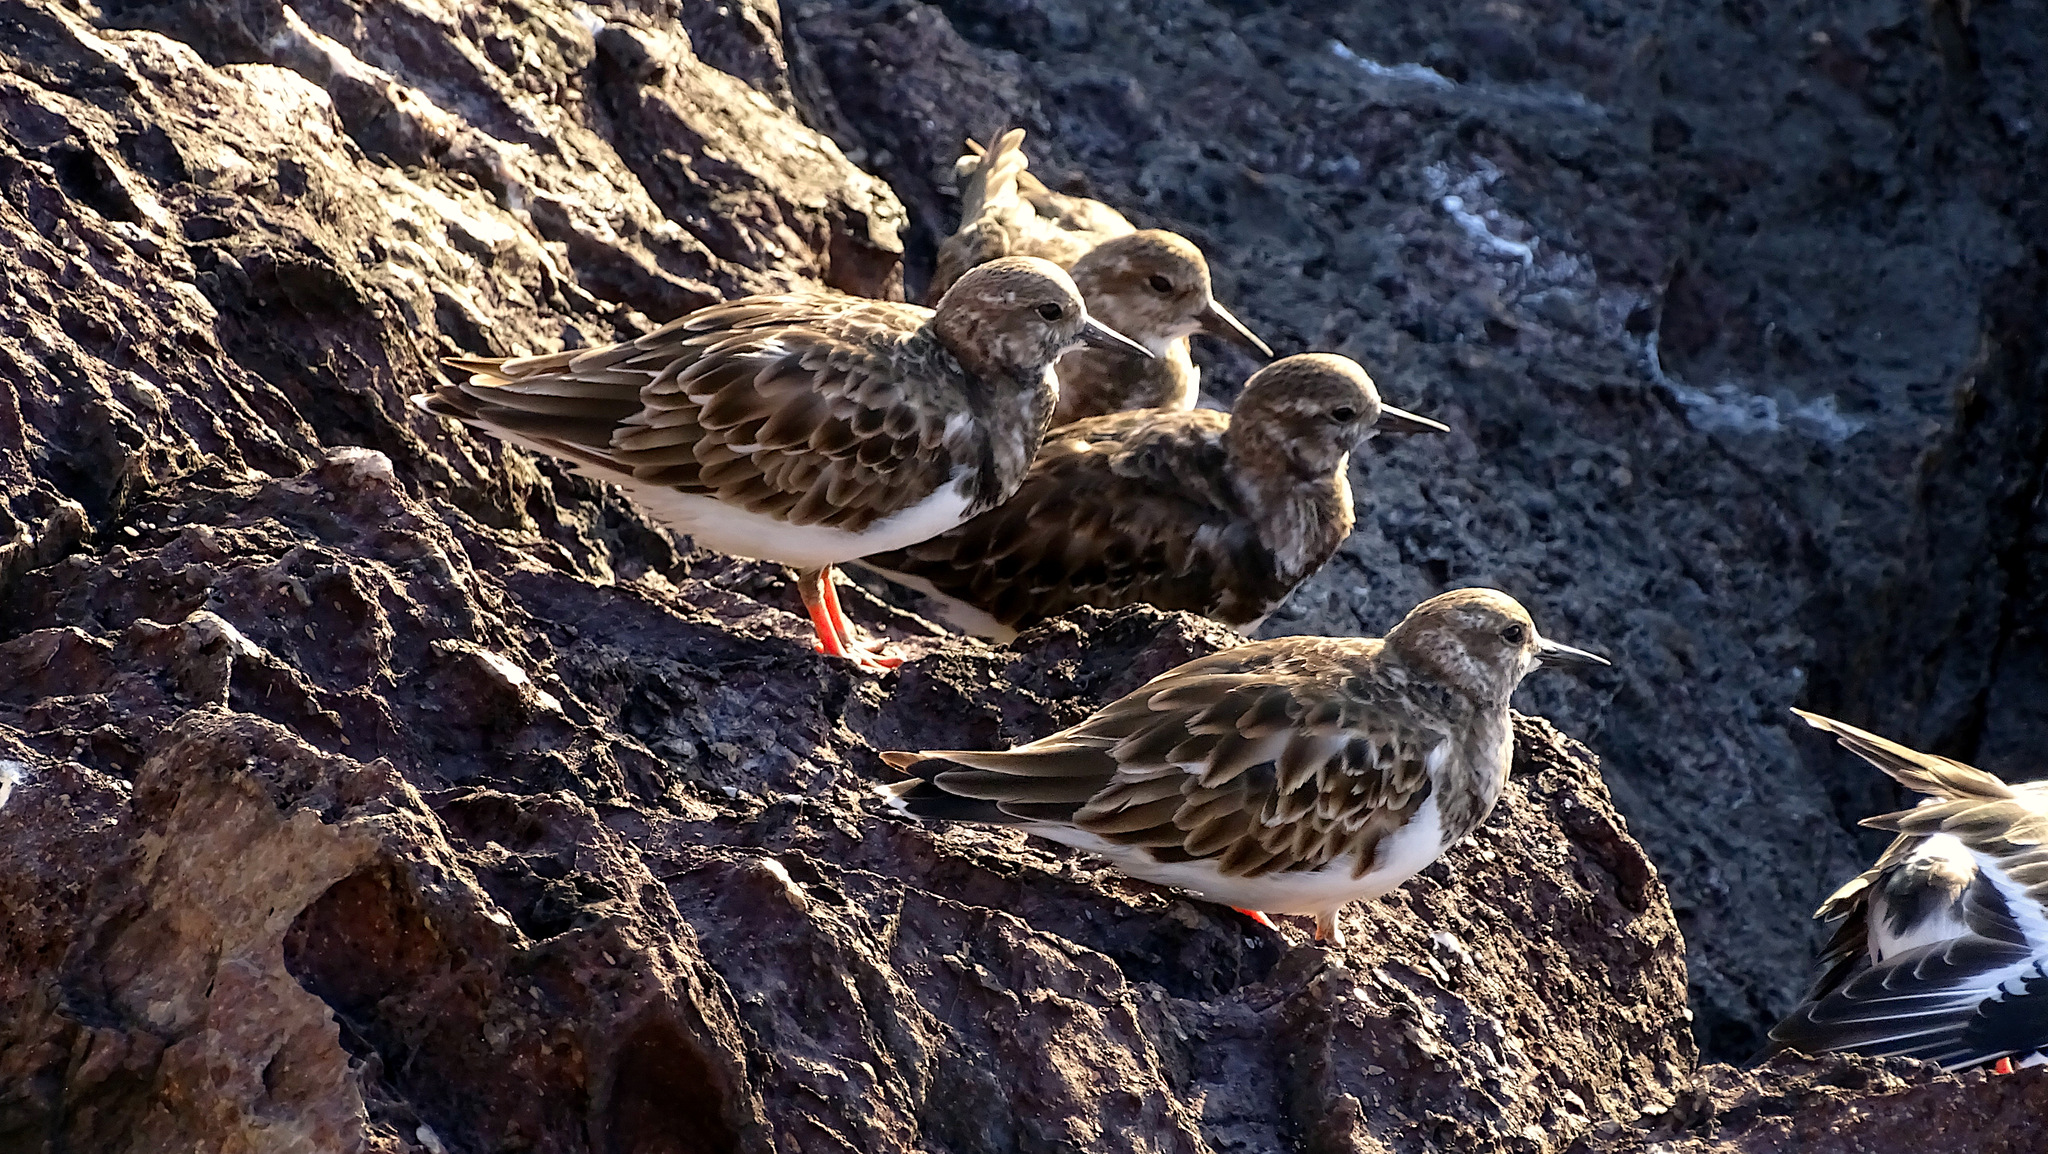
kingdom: Animalia
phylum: Chordata
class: Aves
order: Charadriiformes
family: Scolopacidae
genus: Arenaria
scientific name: Arenaria interpres
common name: Ruddy turnstone
